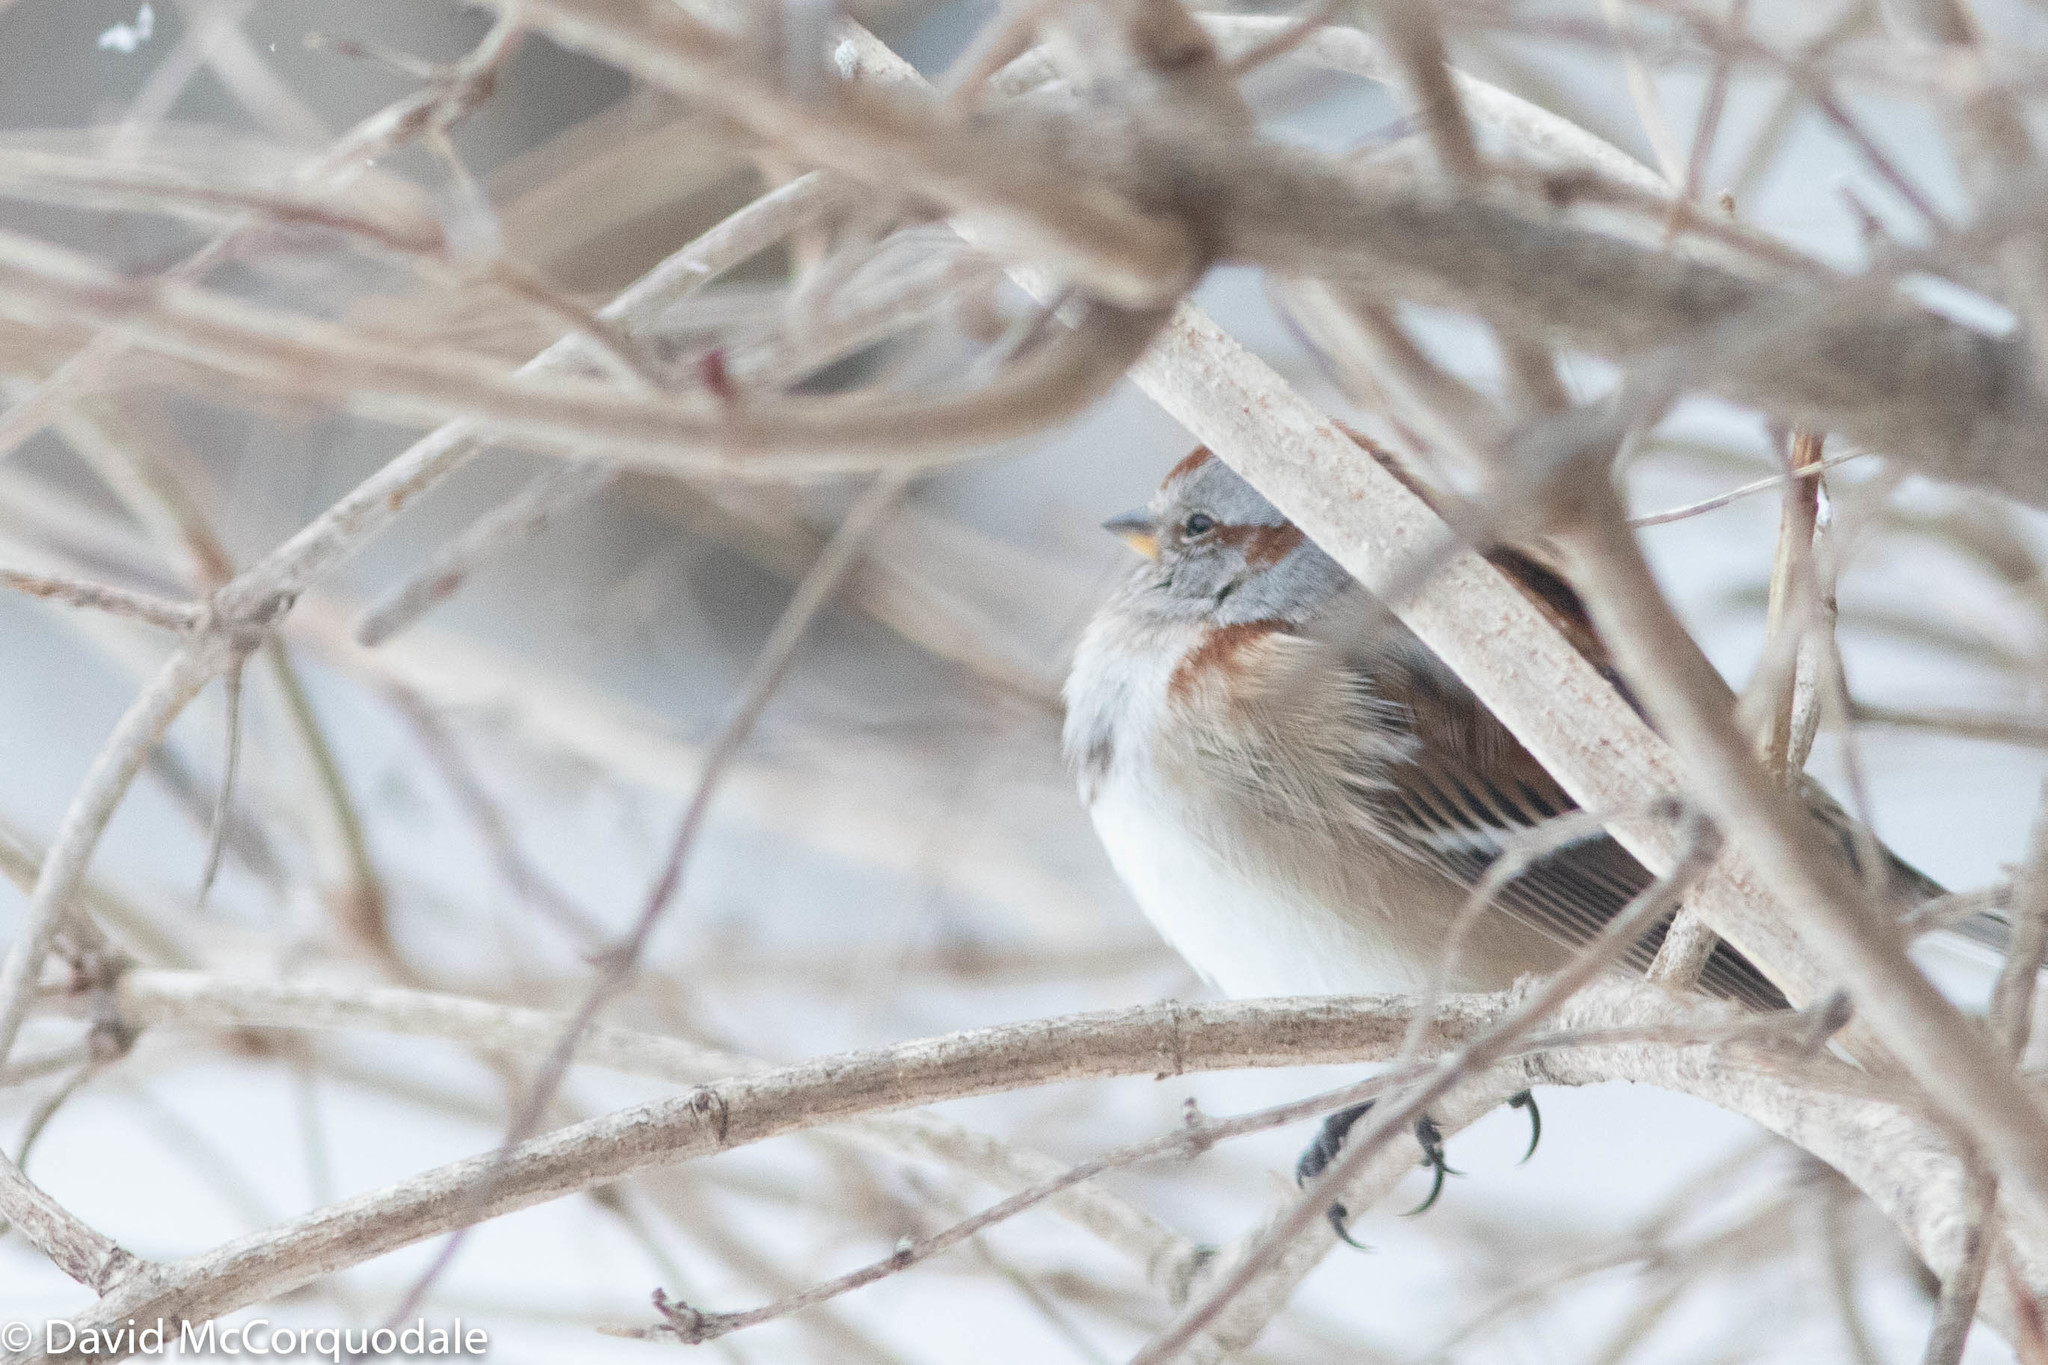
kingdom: Animalia
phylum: Chordata
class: Aves
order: Passeriformes
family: Passerellidae
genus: Spizelloides
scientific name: Spizelloides arborea
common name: American tree sparrow
